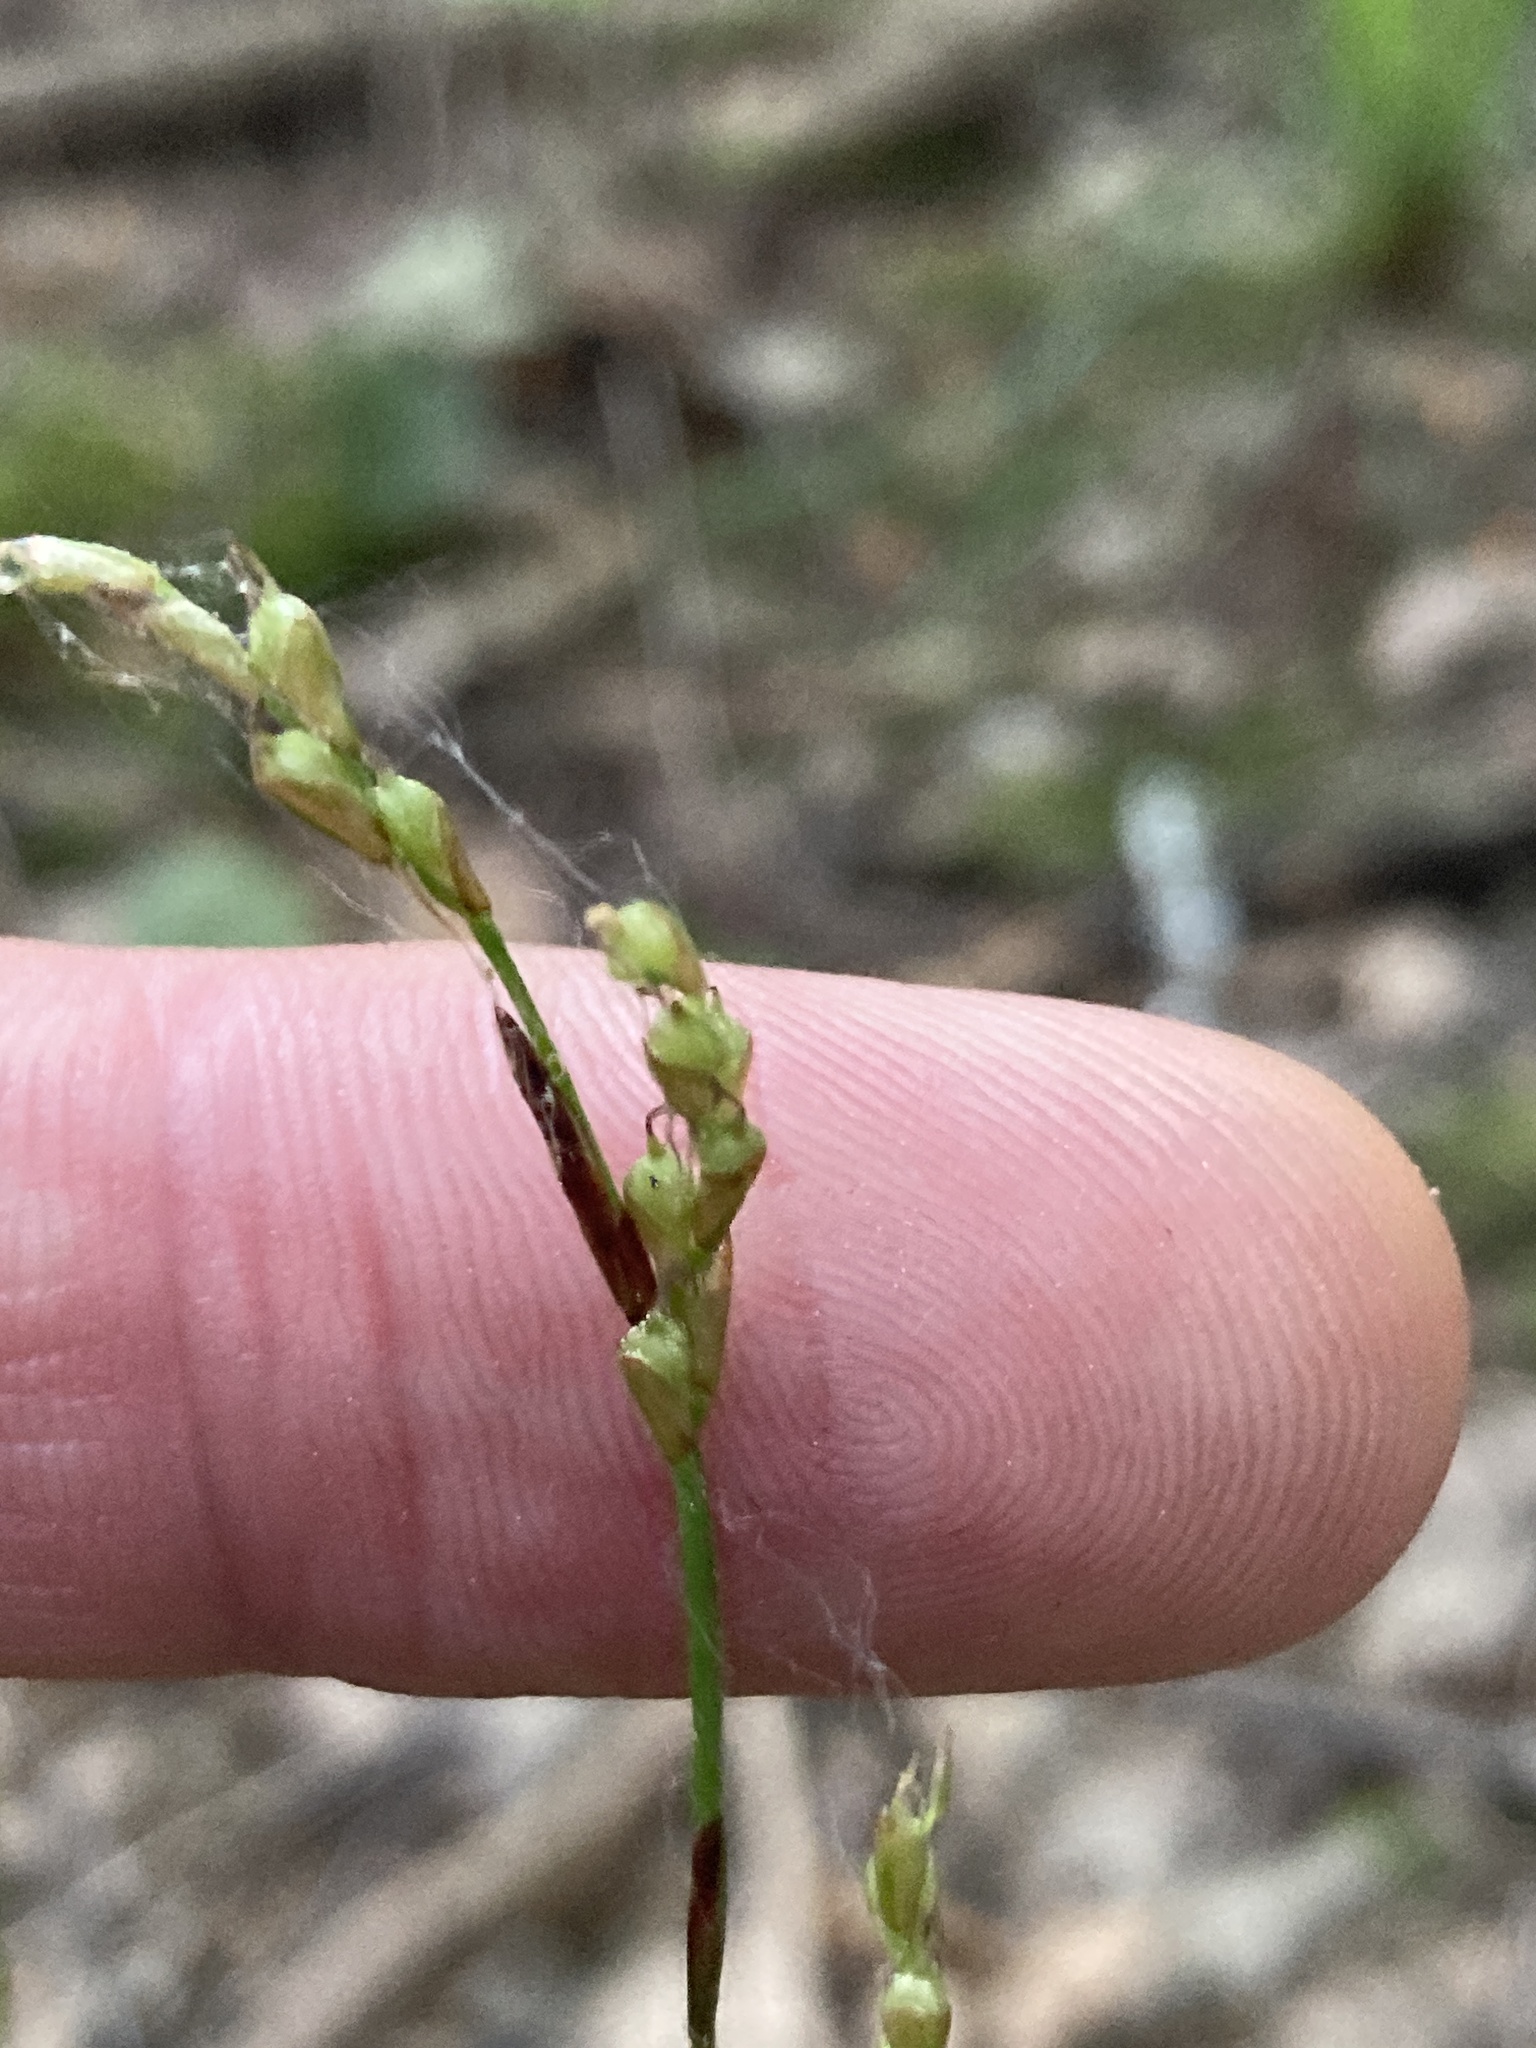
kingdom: Plantae
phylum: Tracheophyta
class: Liliopsida
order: Poales
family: Cyperaceae
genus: Carex
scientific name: Carex digitata
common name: Fingered sedge
